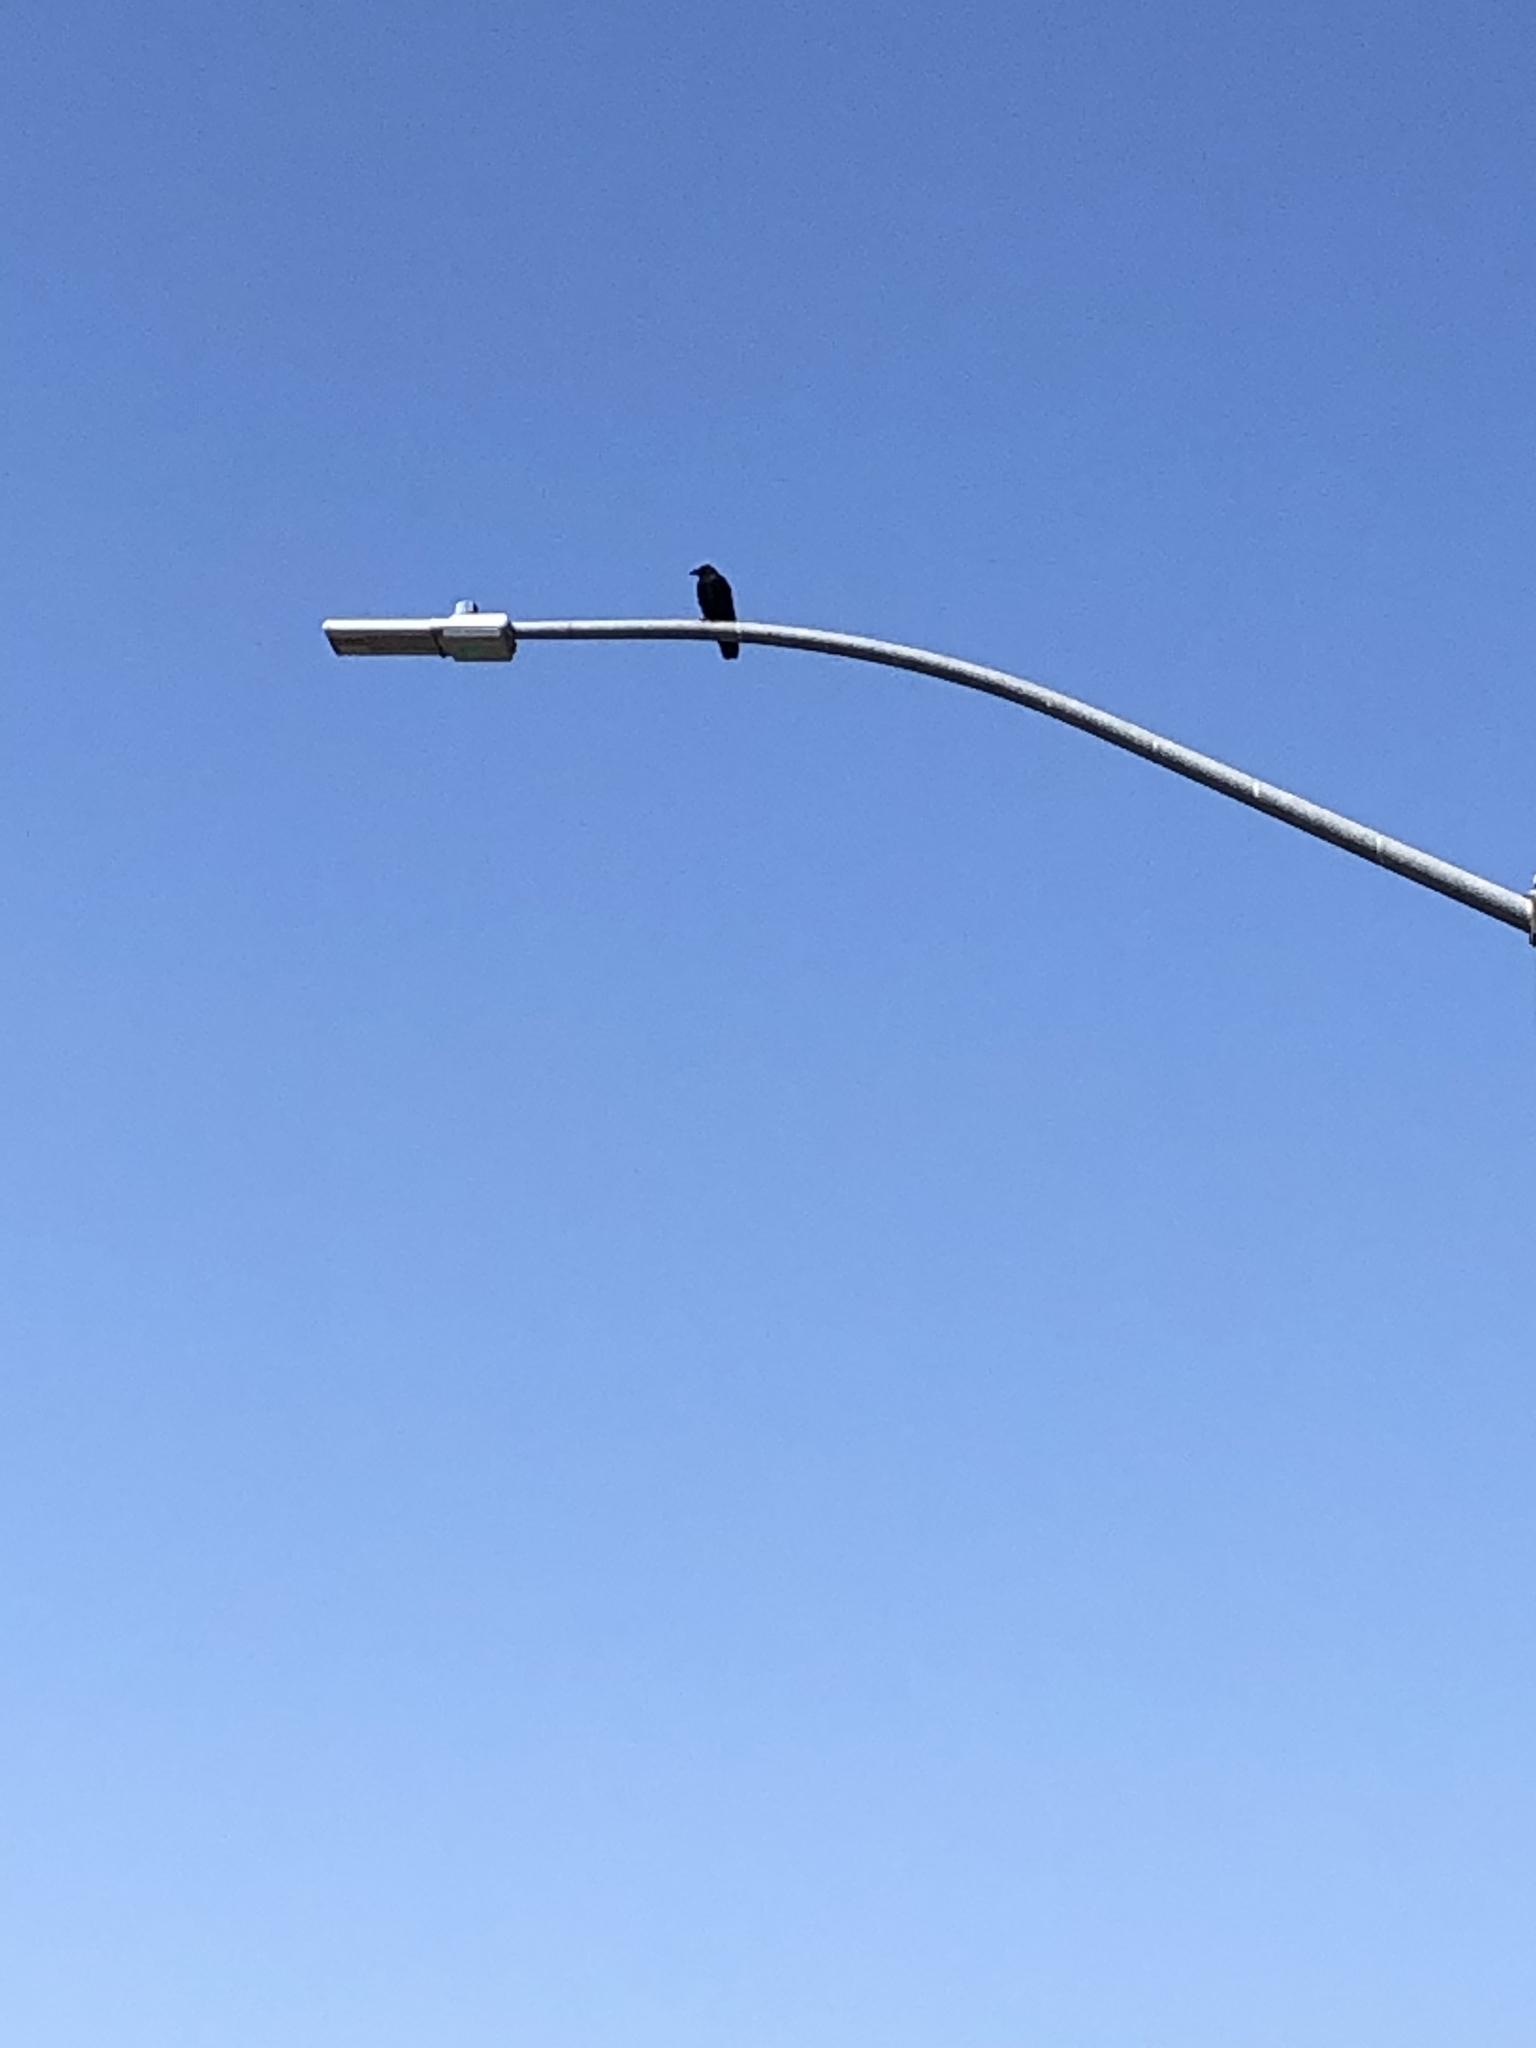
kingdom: Animalia
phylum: Chordata
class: Aves
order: Passeriformes
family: Corvidae
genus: Corvus
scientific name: Corvus brachyrhynchos
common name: American crow
